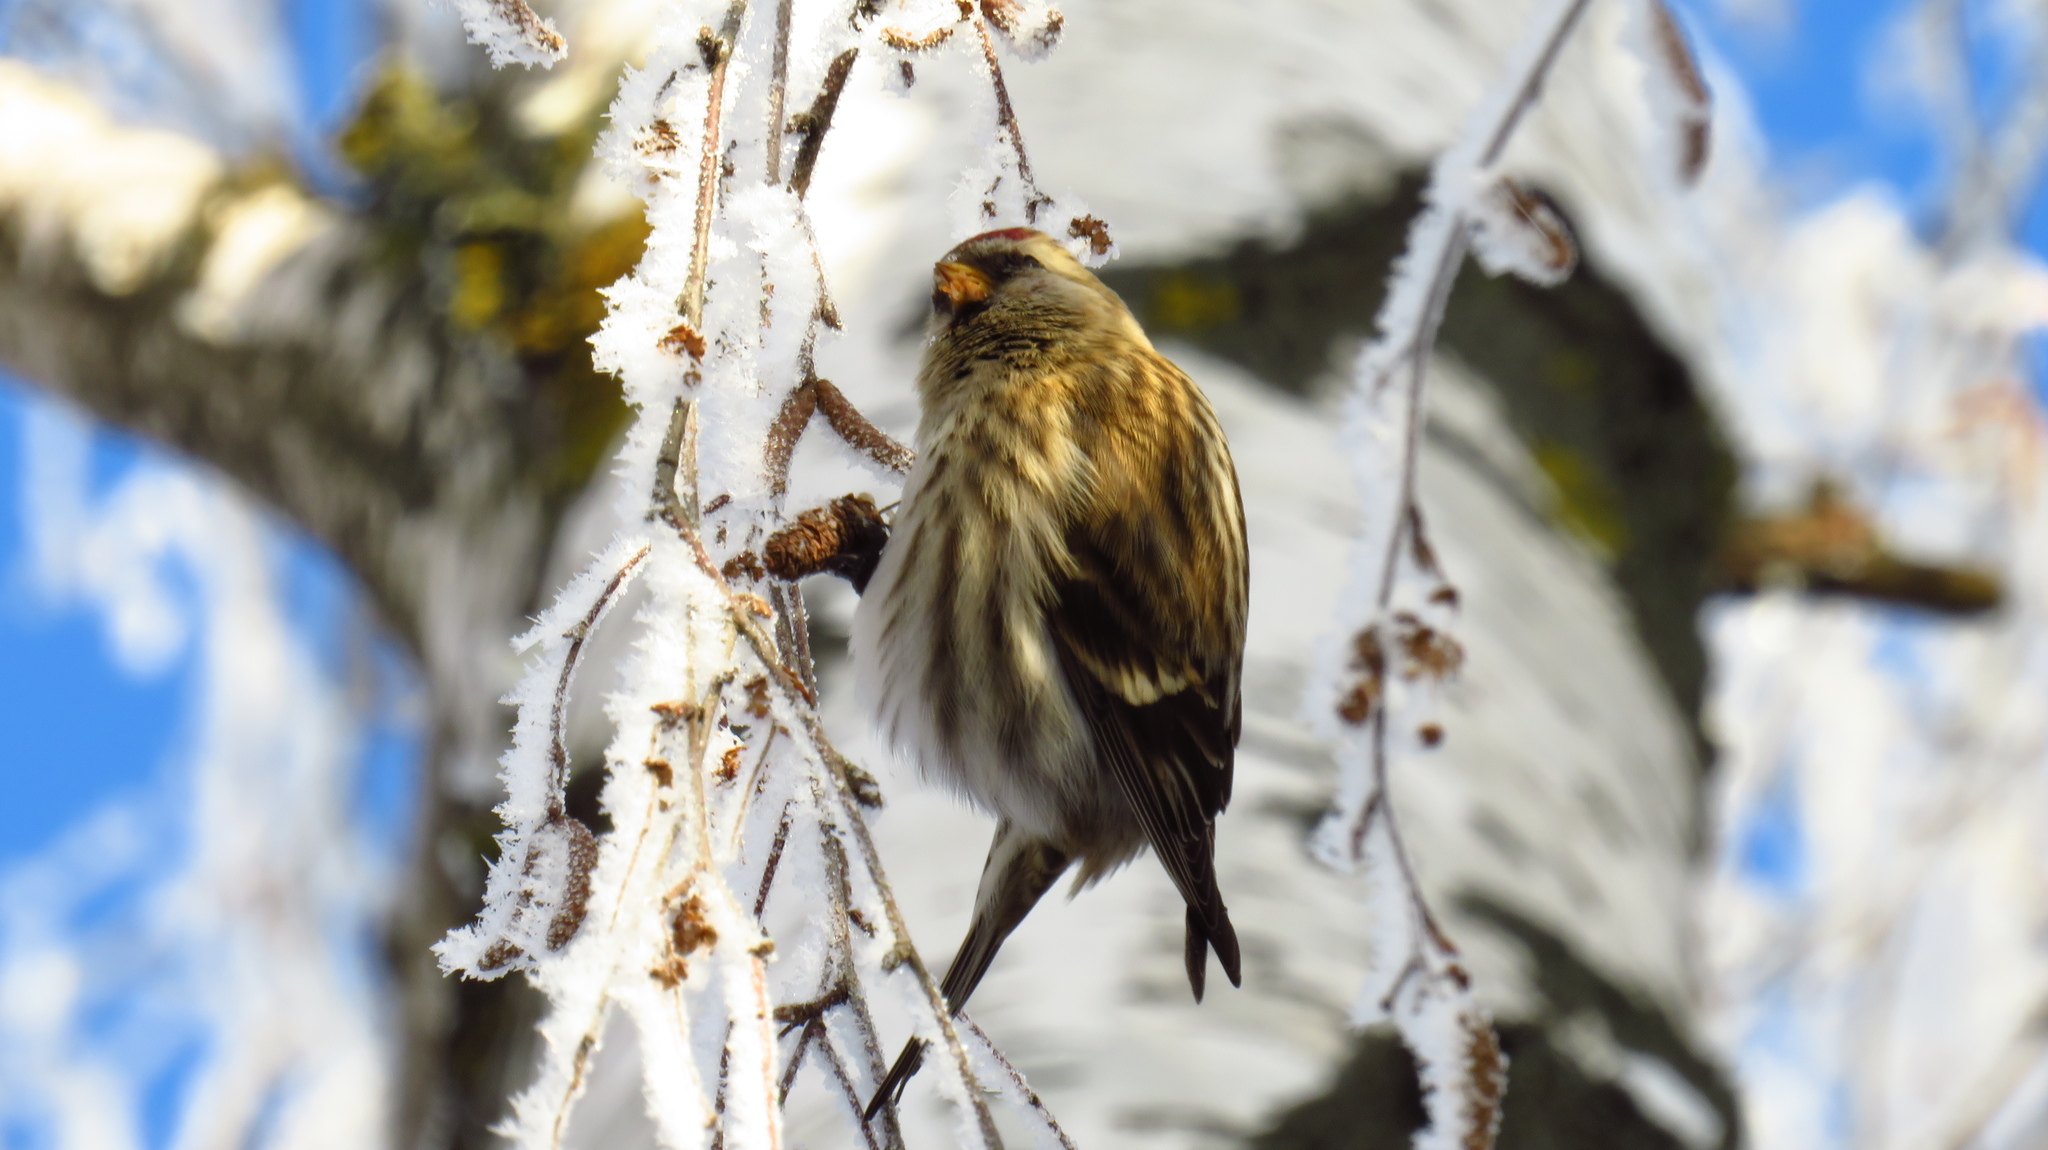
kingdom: Animalia
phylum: Chordata
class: Aves
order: Passeriformes
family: Fringillidae
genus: Acanthis
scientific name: Acanthis flammea
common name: Common redpoll
